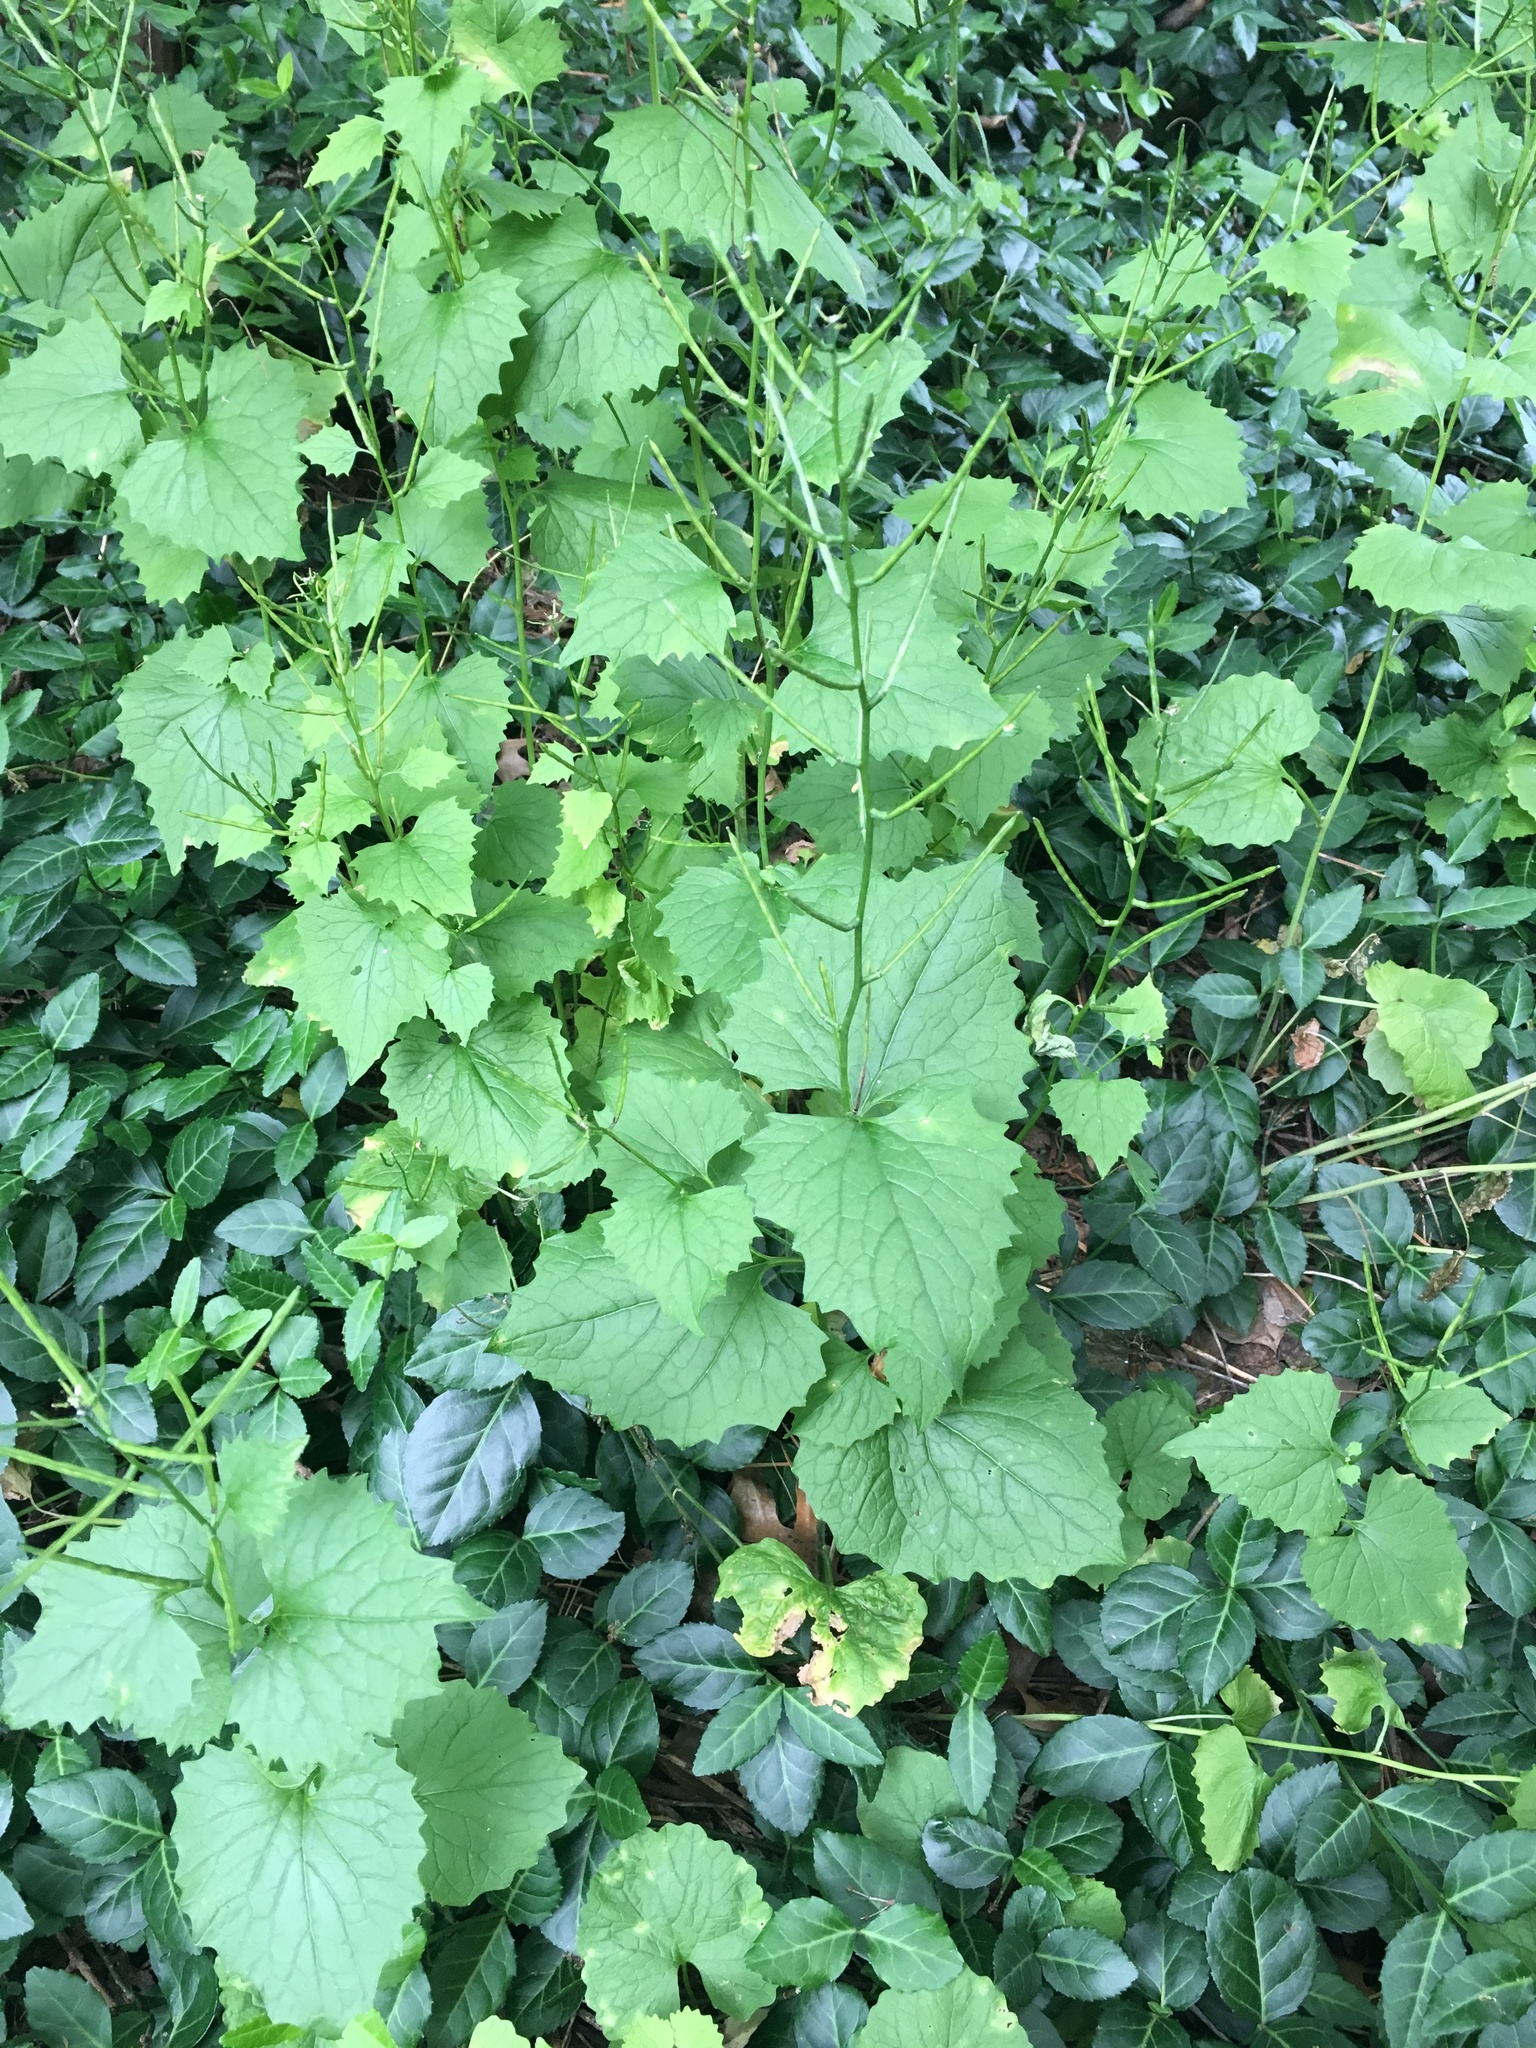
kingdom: Plantae
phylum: Tracheophyta
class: Magnoliopsida
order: Brassicales
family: Brassicaceae
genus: Alliaria
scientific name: Alliaria petiolata
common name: Garlic mustard
